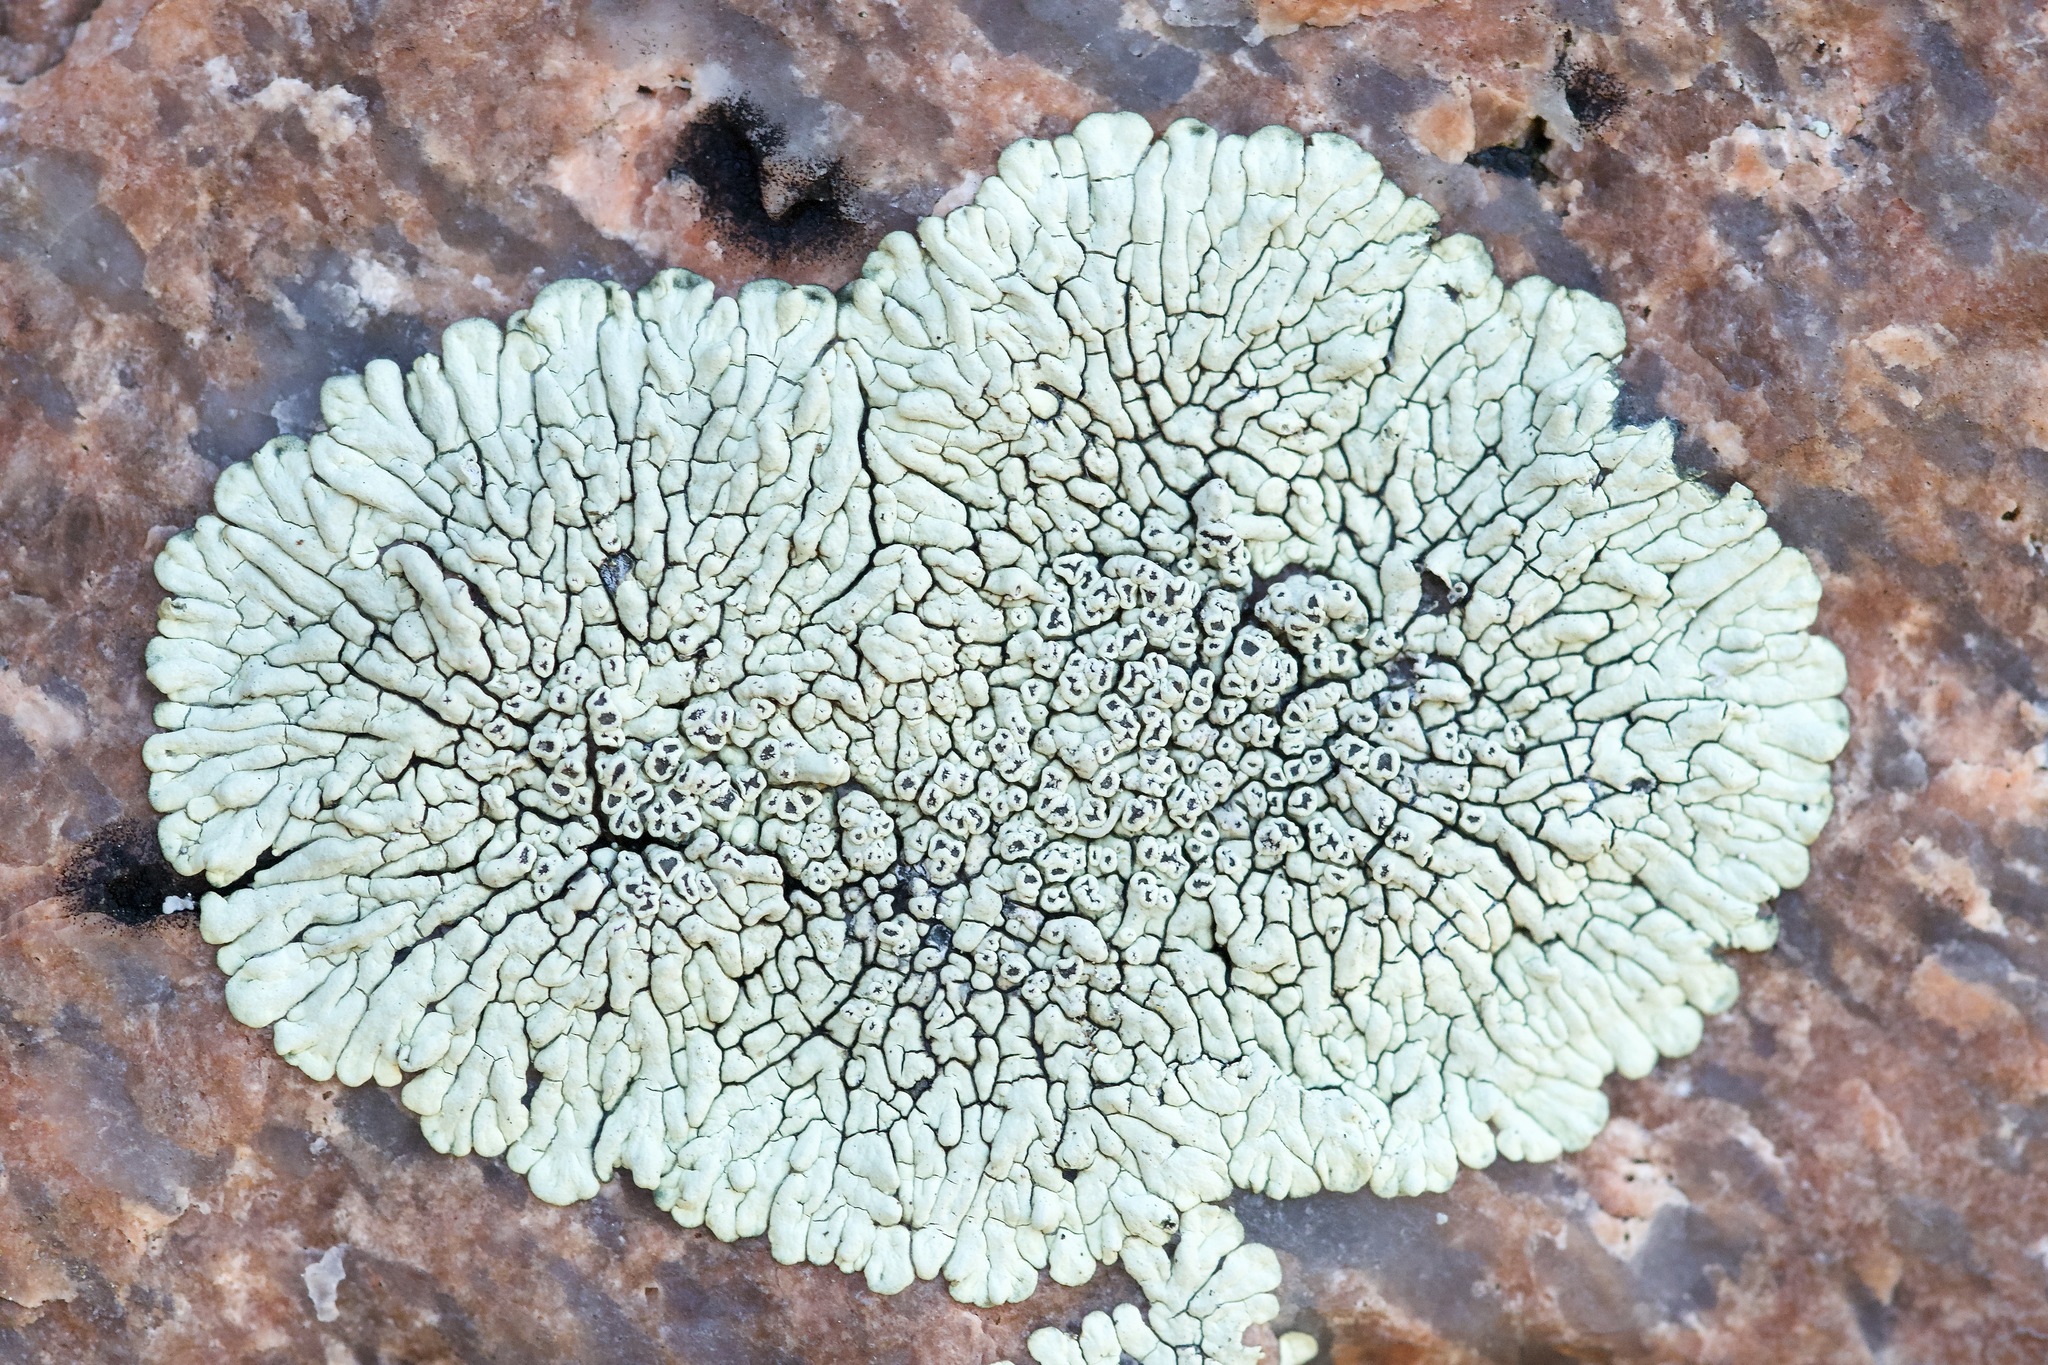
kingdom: Fungi
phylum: Ascomycota
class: Lecanoromycetes
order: Caliciales
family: Caliciaceae
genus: Dimelaena
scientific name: Dimelaena oreina
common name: Golden moonglow lichen
